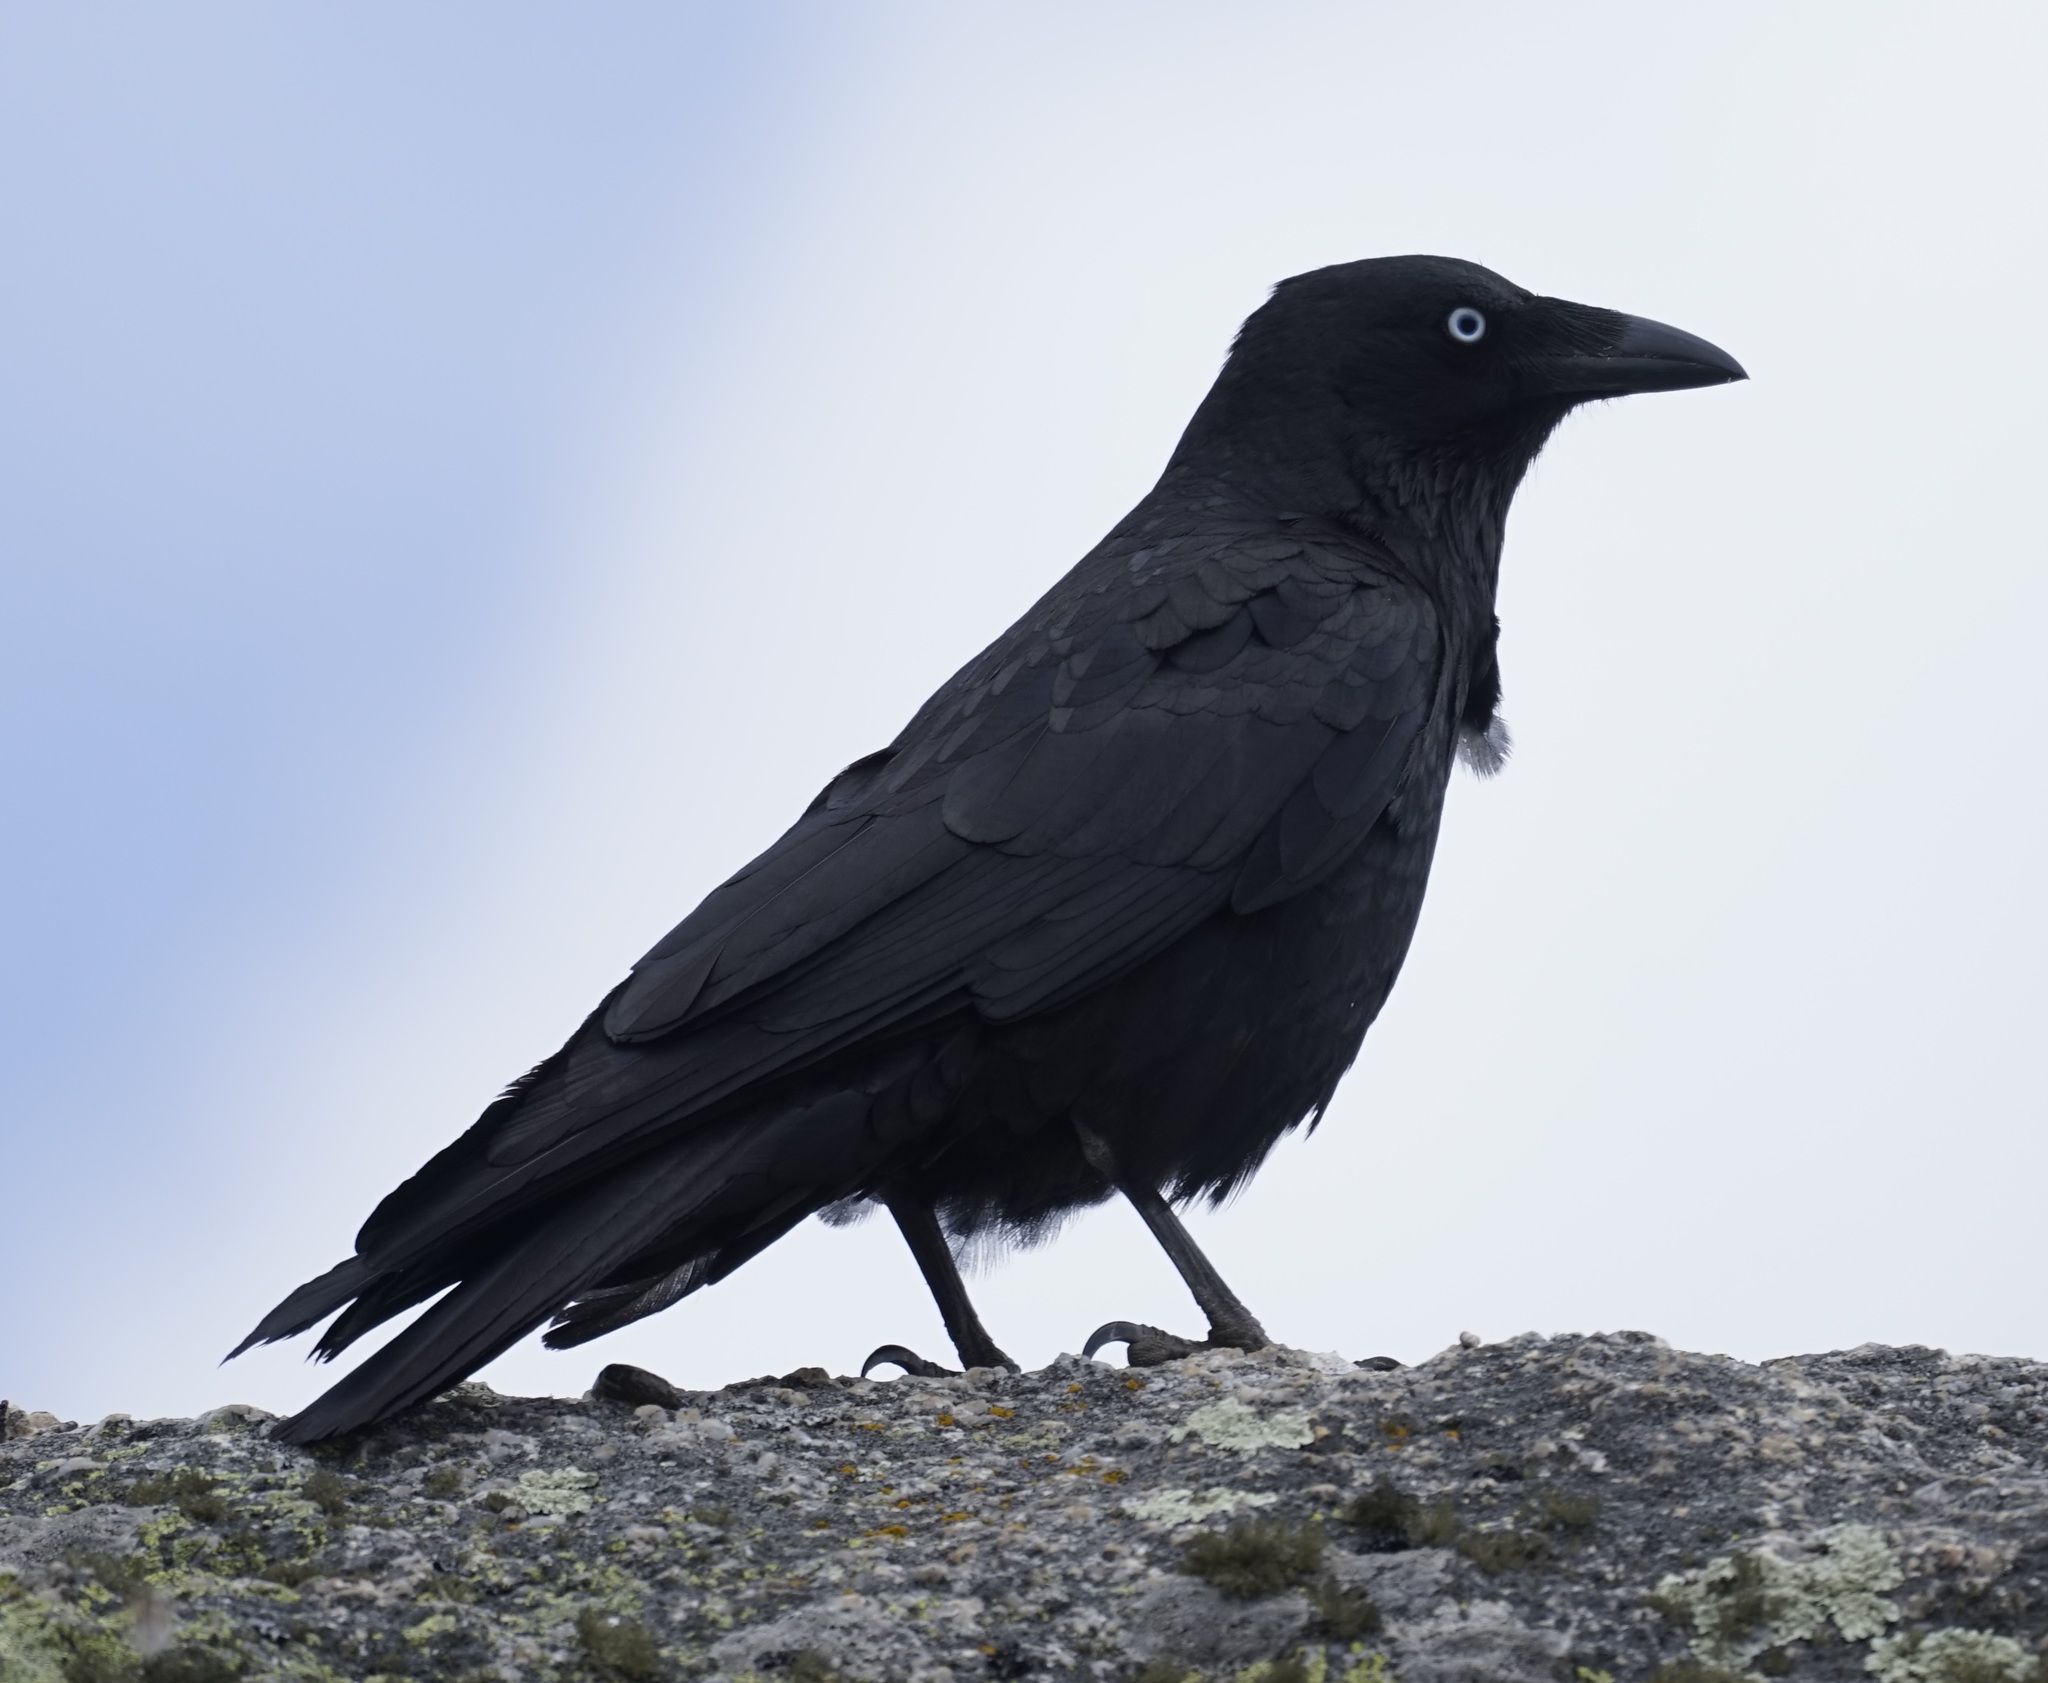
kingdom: Animalia
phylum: Chordata
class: Aves
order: Passeriformes
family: Corvidae
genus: Corvus
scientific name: Corvus mellori
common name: Little raven
